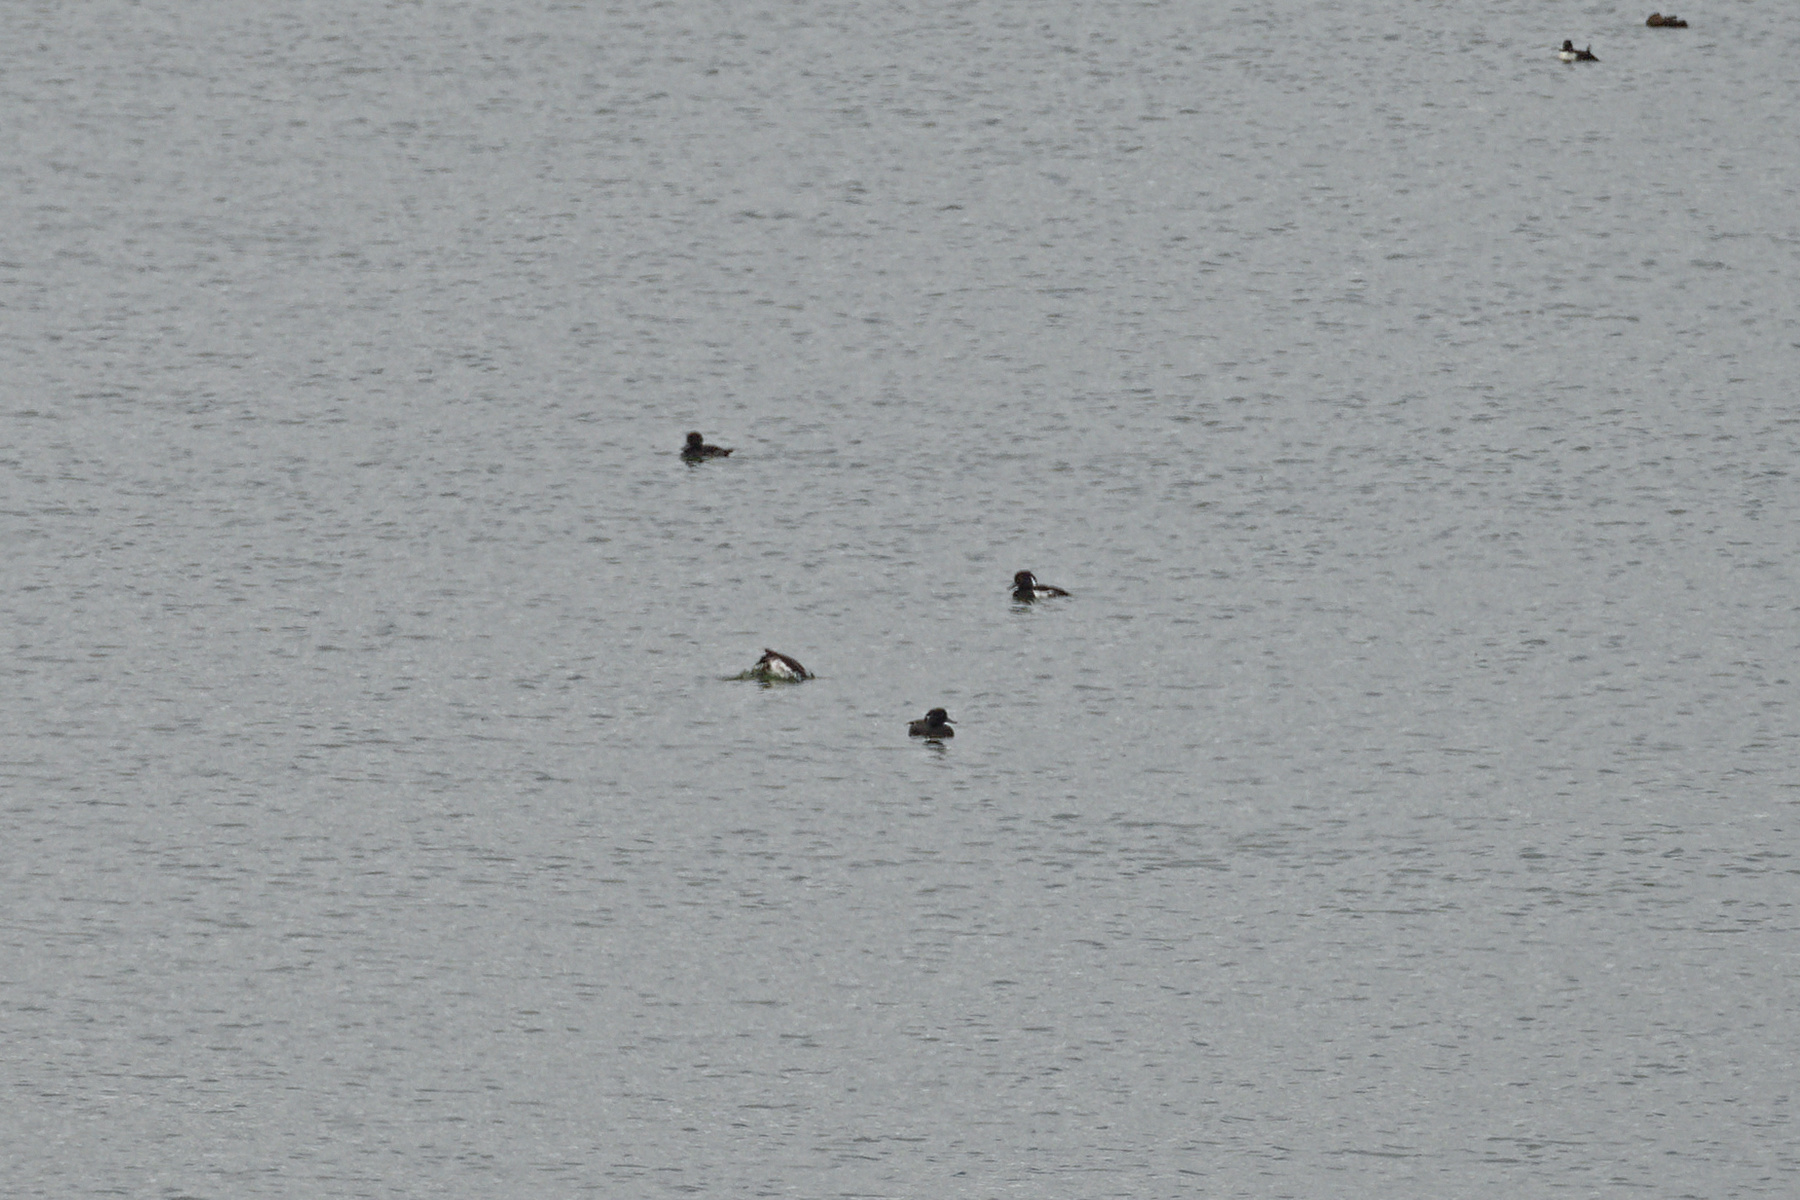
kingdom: Animalia
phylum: Chordata
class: Aves
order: Anseriformes
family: Anatidae
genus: Aythya
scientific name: Aythya fuligula
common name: Tufted duck
